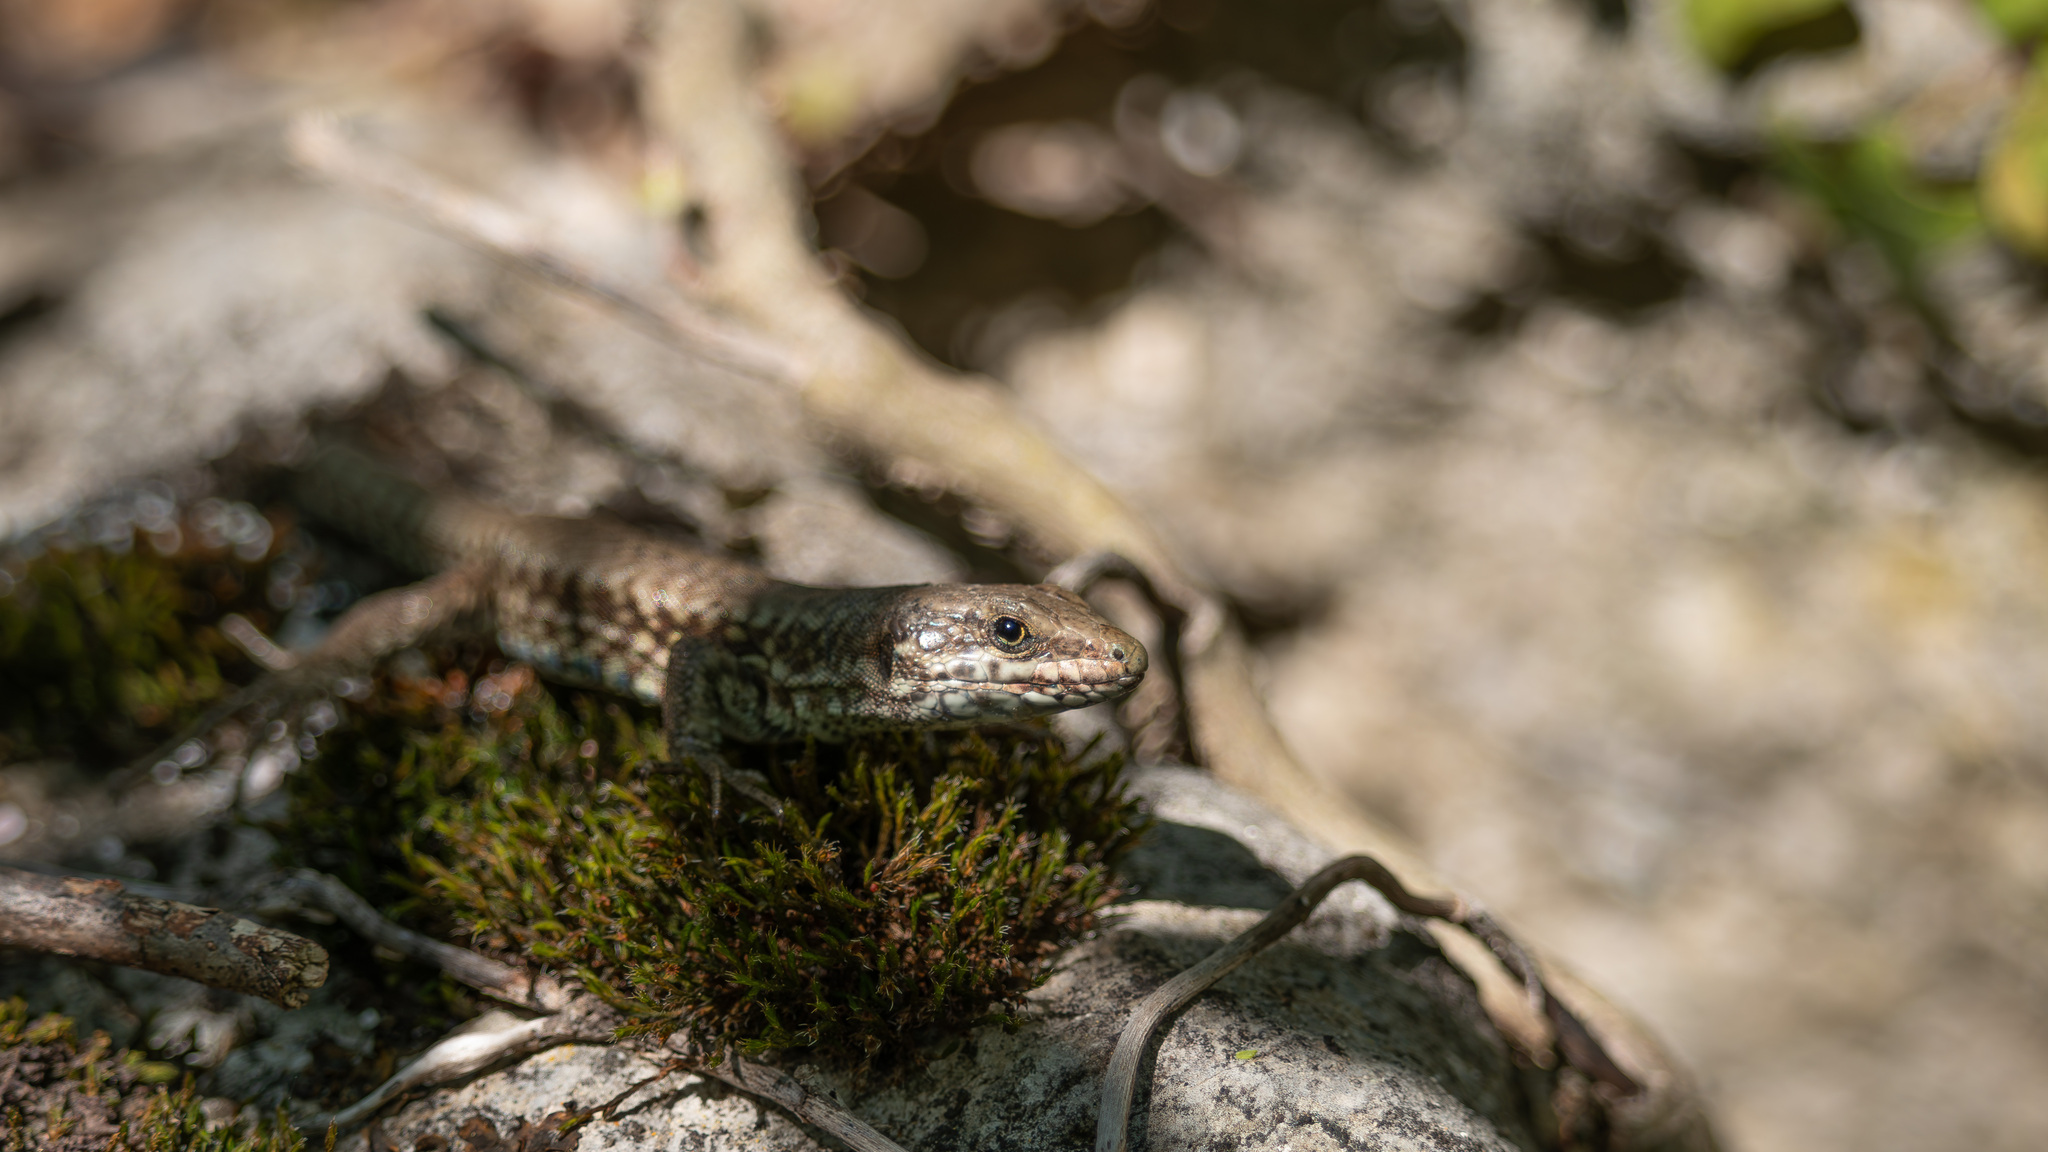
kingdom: Animalia
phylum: Chordata
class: Squamata
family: Lacertidae
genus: Podarcis
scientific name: Podarcis muralis
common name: Common wall lizard
